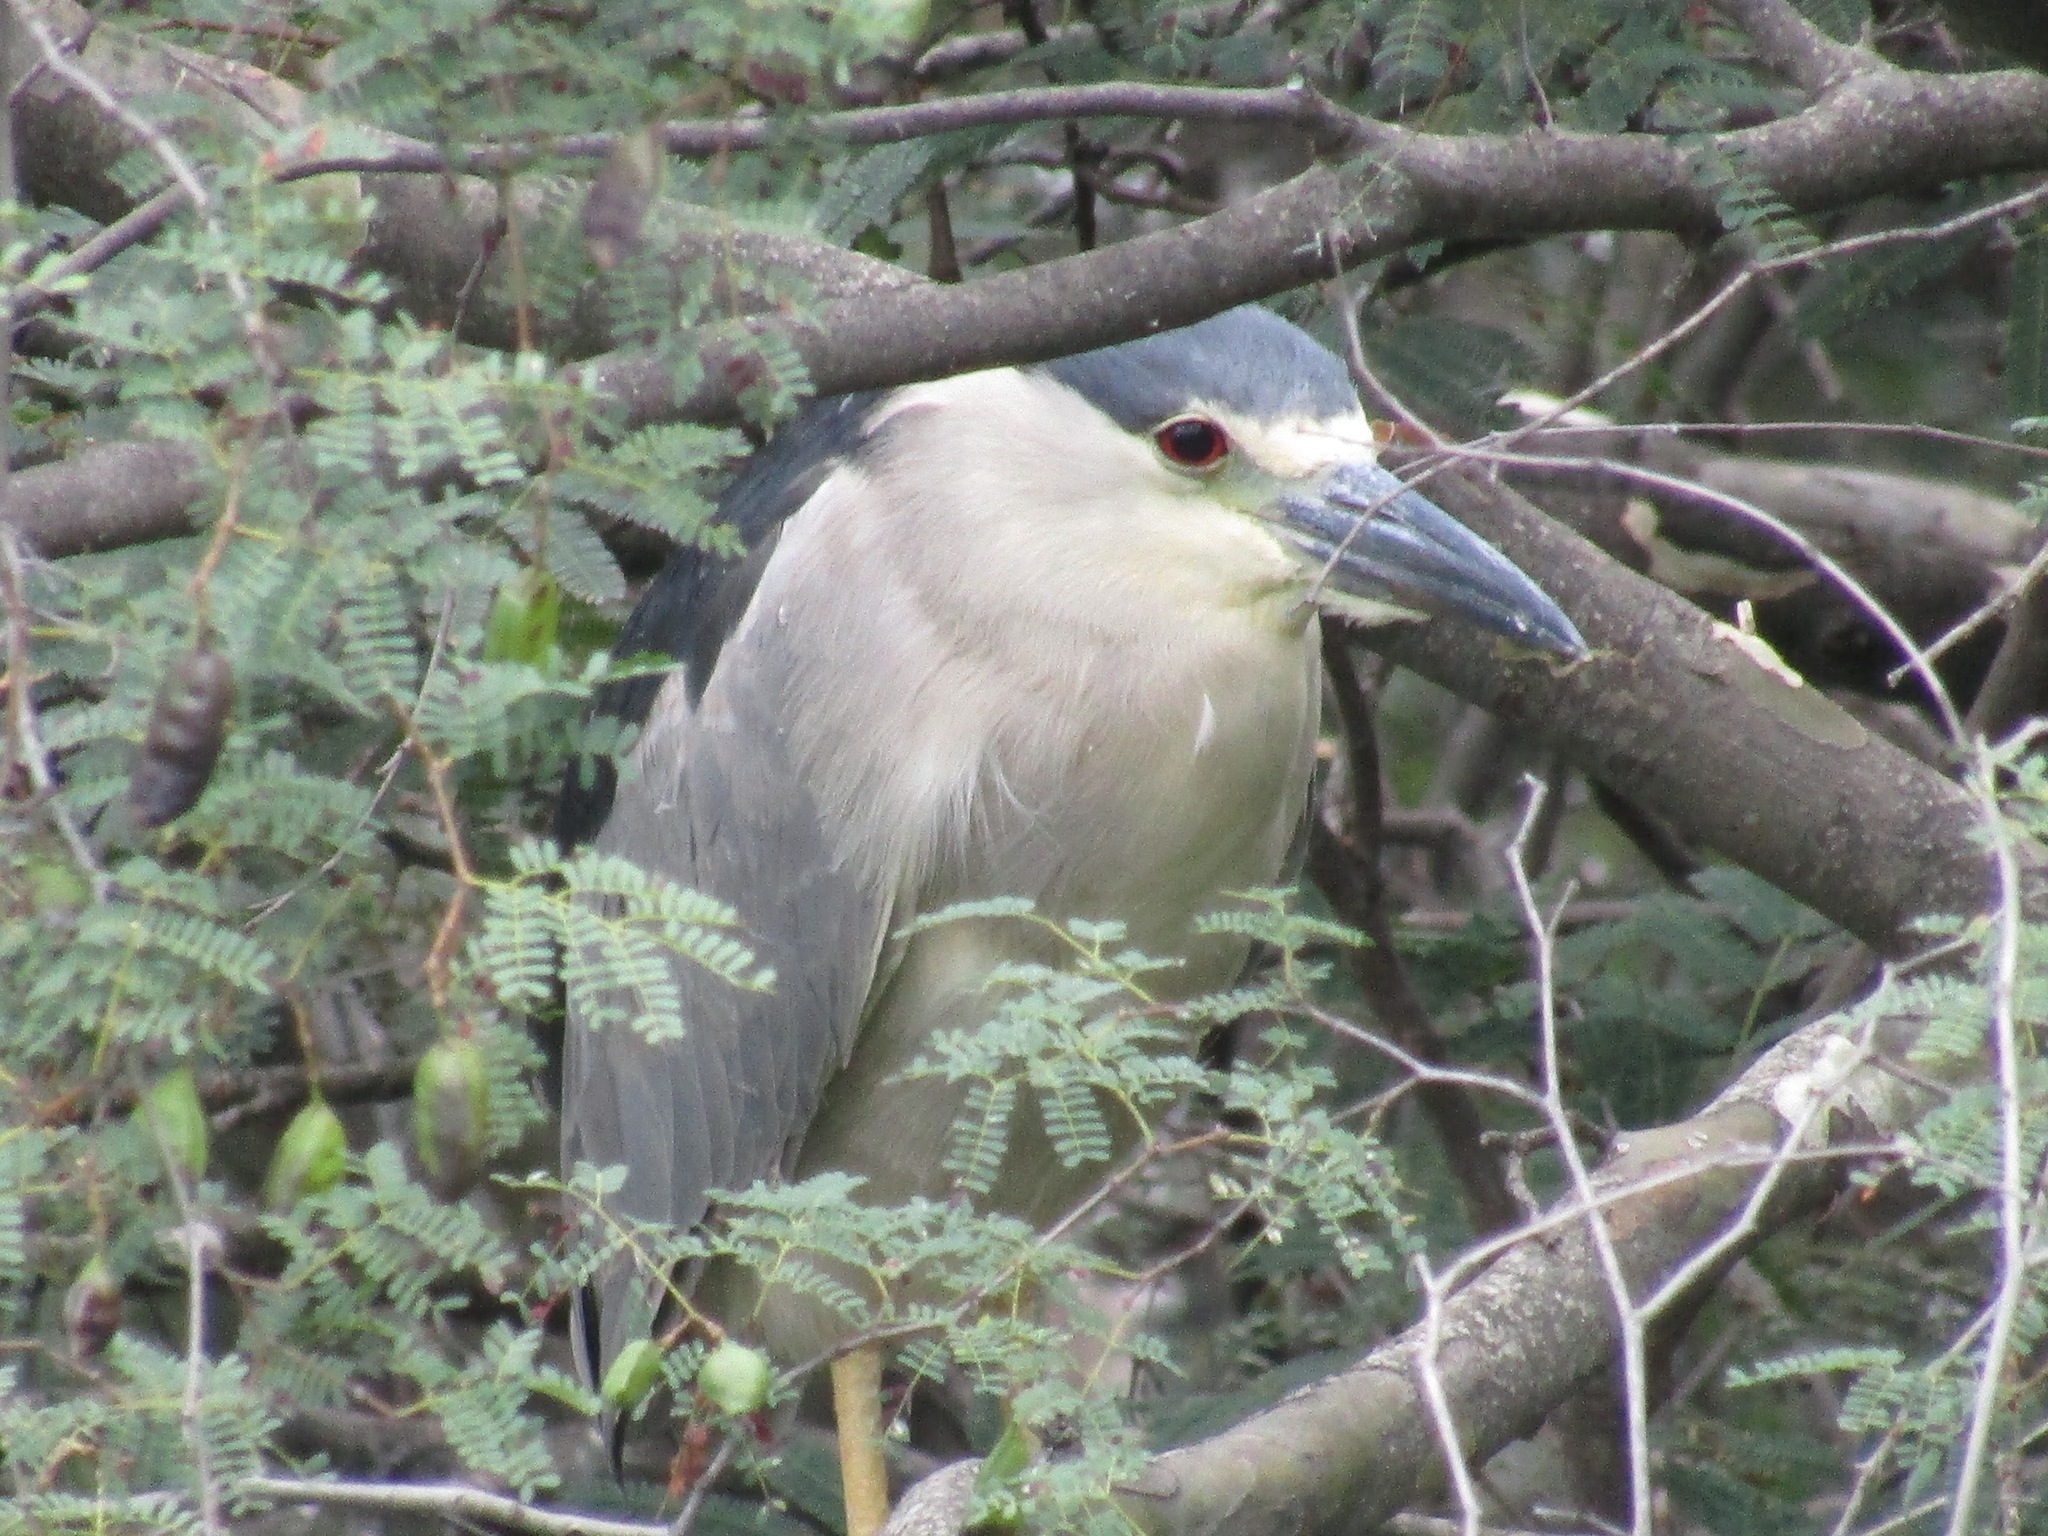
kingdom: Animalia
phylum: Chordata
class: Aves
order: Pelecaniformes
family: Ardeidae
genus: Nycticorax
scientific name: Nycticorax nycticorax
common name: Black-crowned night heron
